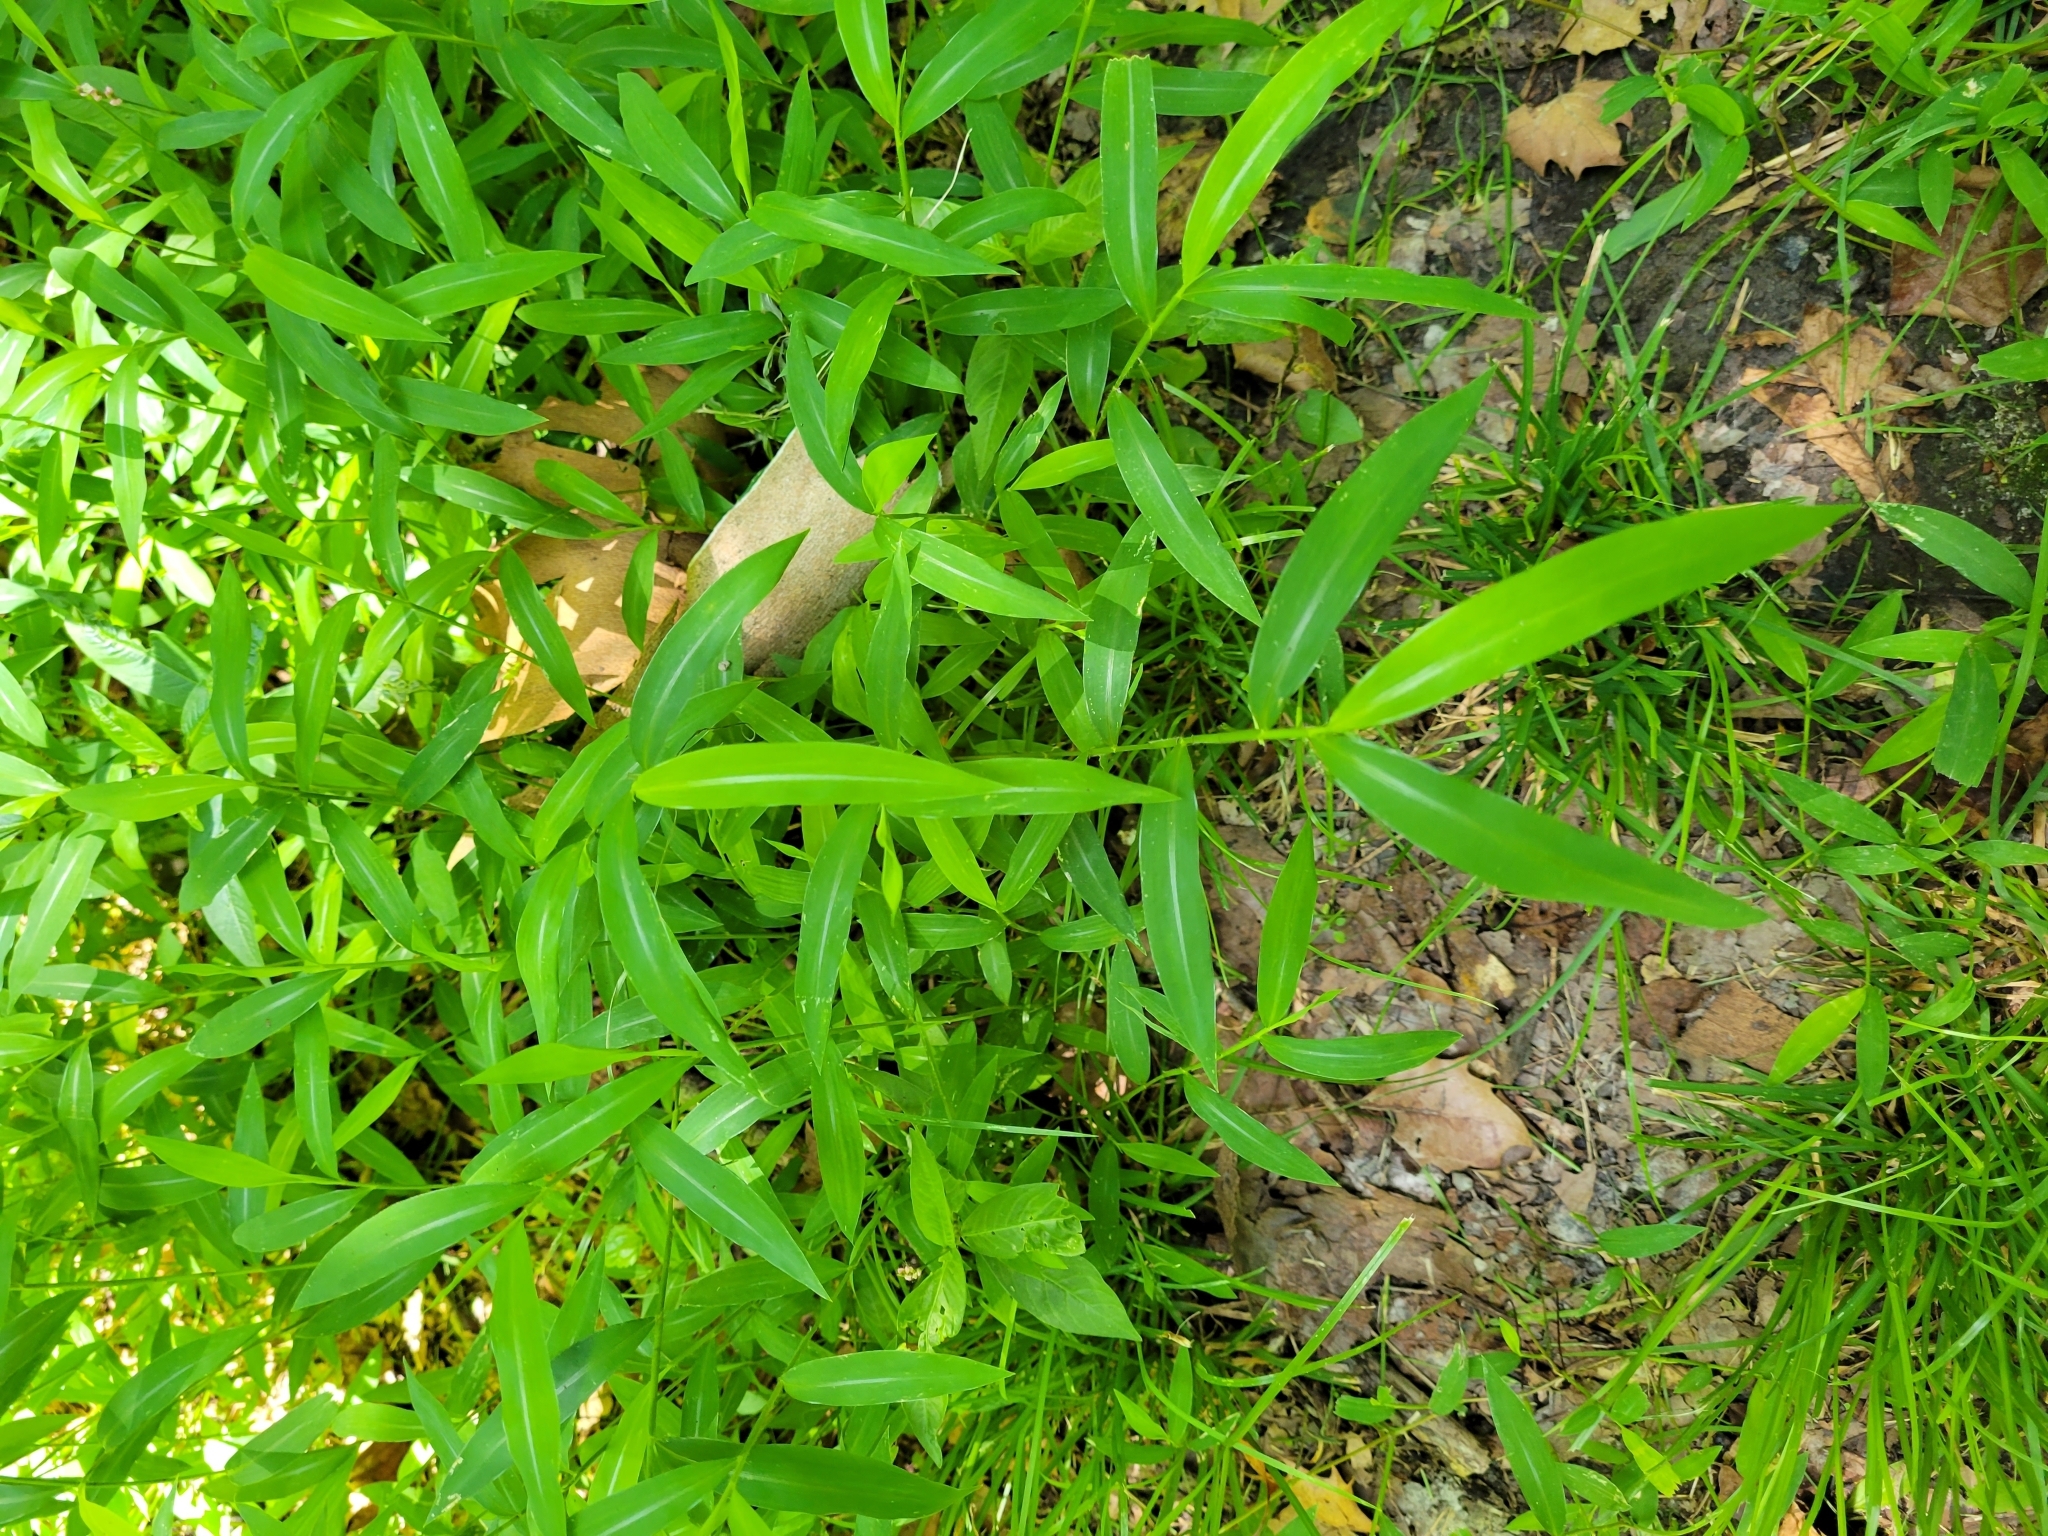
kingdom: Plantae
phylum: Tracheophyta
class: Liliopsida
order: Poales
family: Poaceae
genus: Microstegium
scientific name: Microstegium vimineum
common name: Japanese stiltgrass
